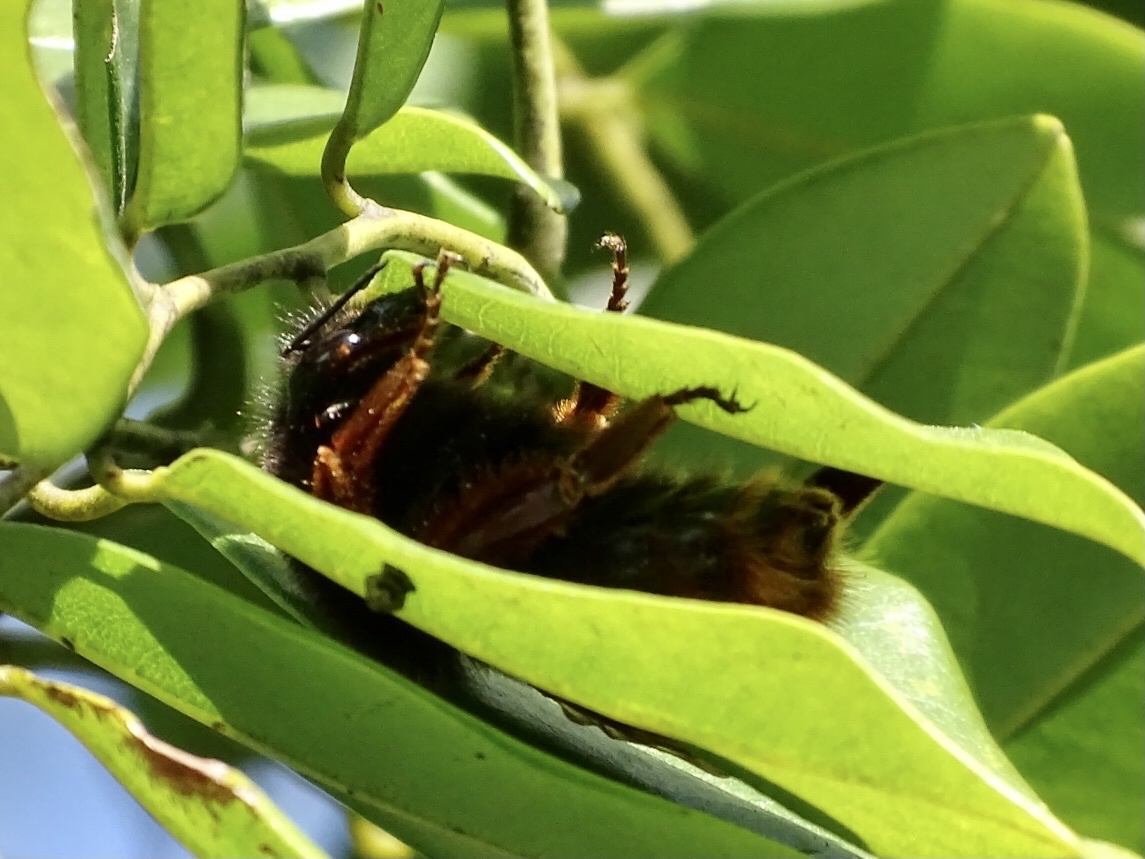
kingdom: Animalia
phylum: Arthropoda
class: Insecta
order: Hymenoptera
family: Apidae
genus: Bombus
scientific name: Bombus eximius
